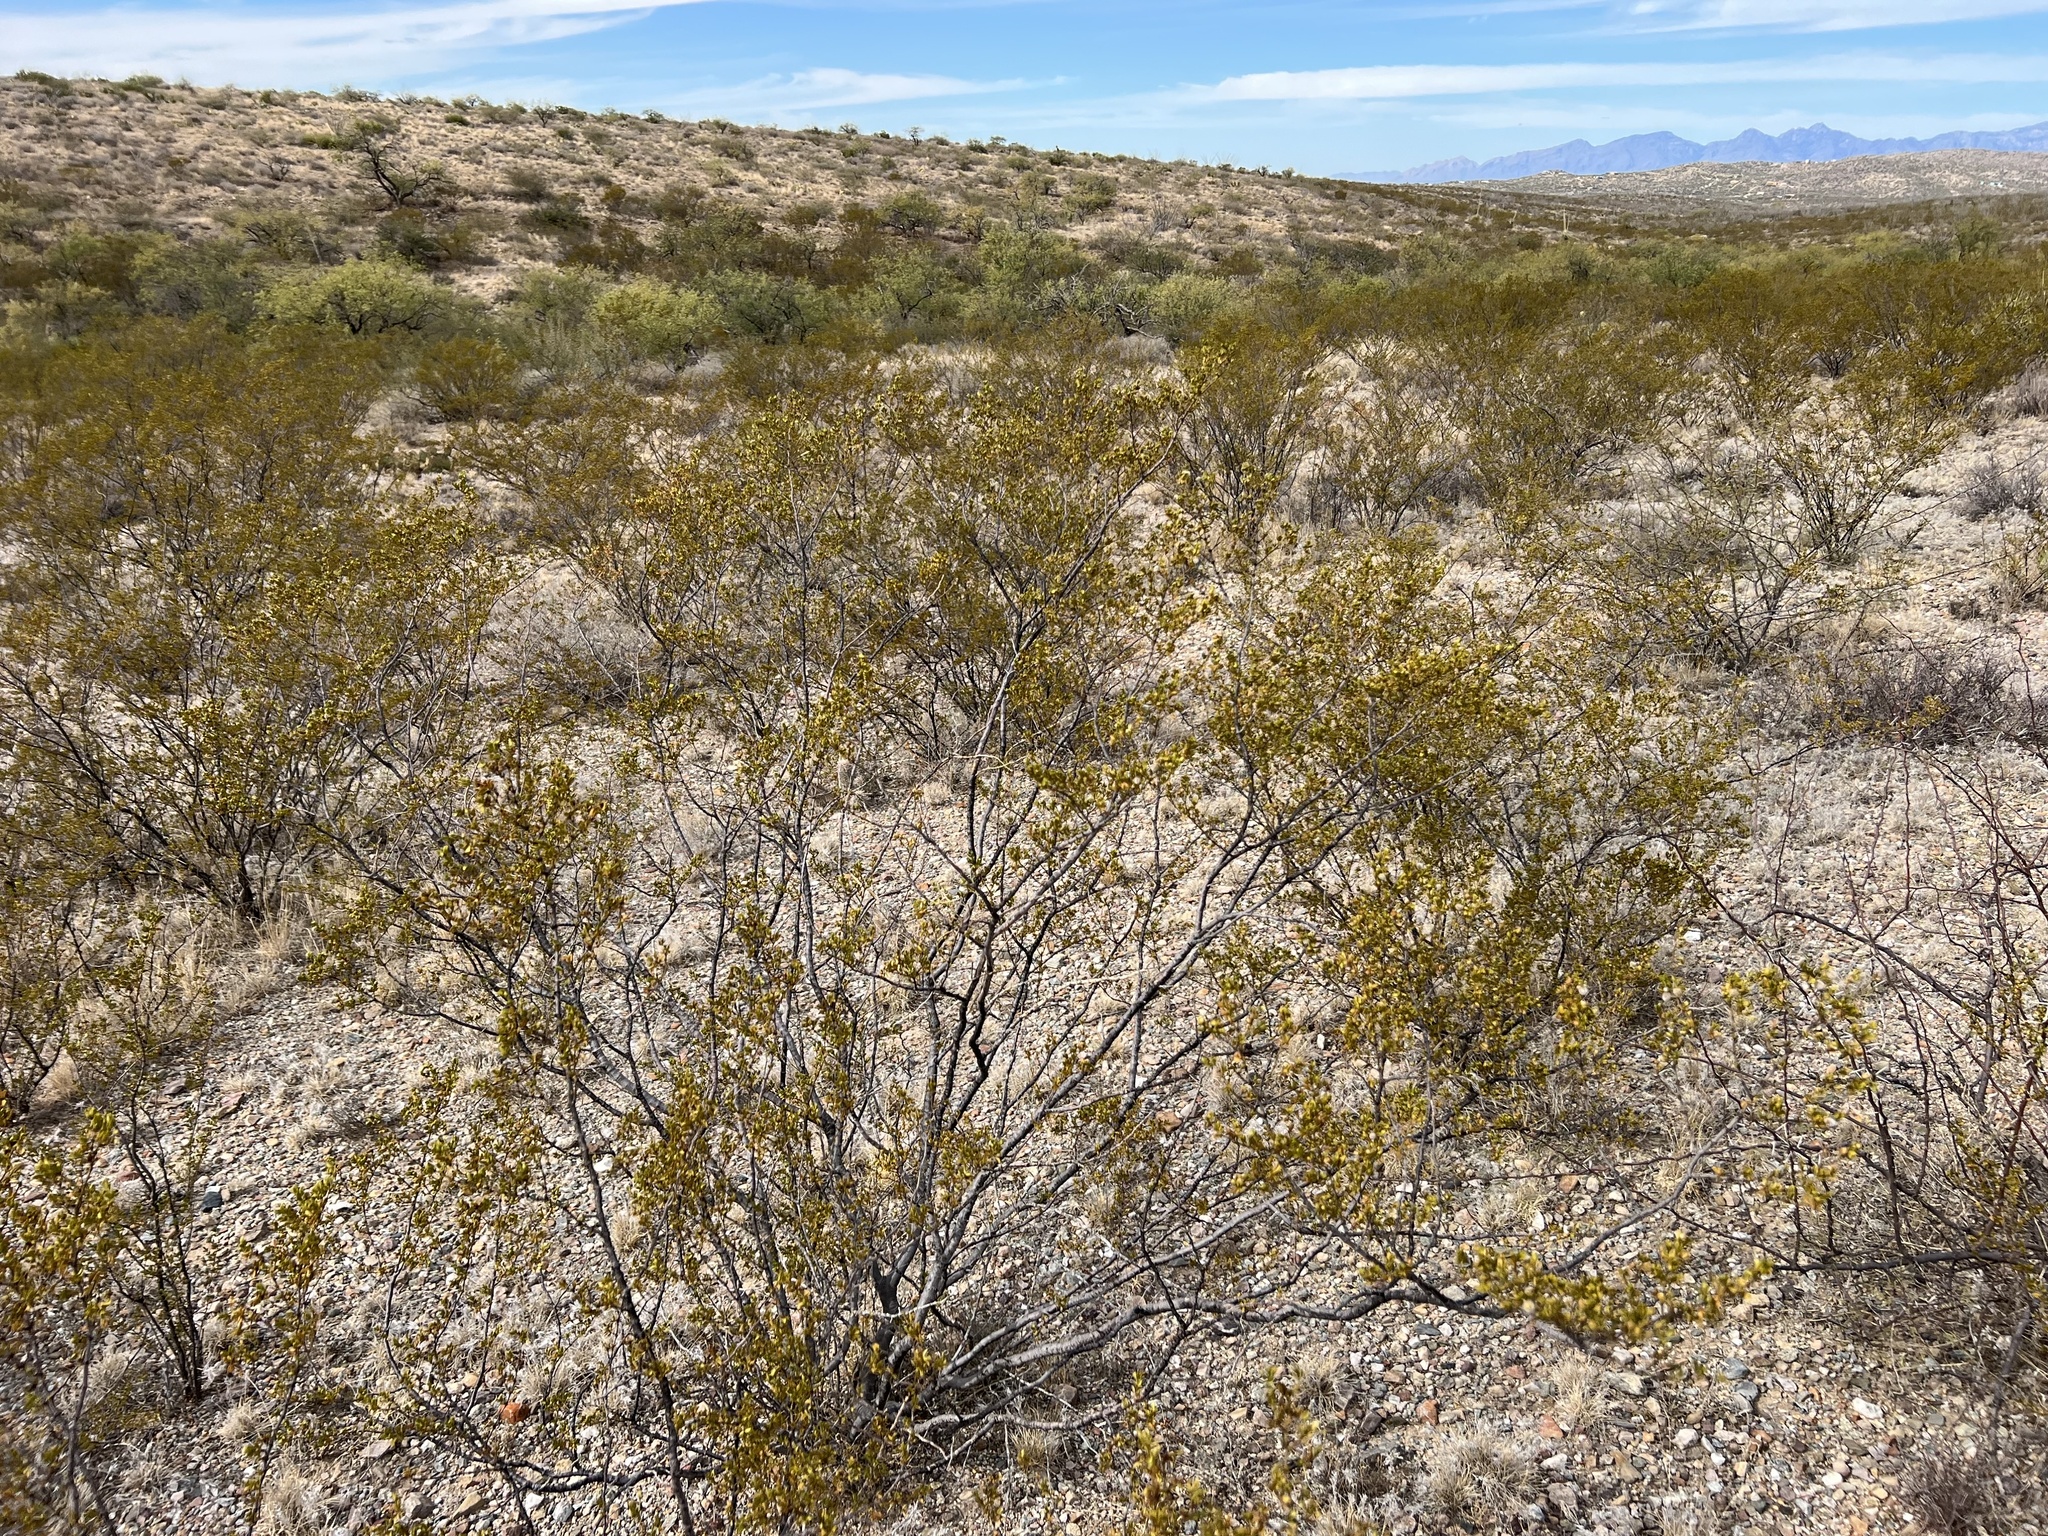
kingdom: Plantae
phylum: Tracheophyta
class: Magnoliopsida
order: Zygophyllales
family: Zygophyllaceae
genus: Larrea
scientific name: Larrea tridentata
